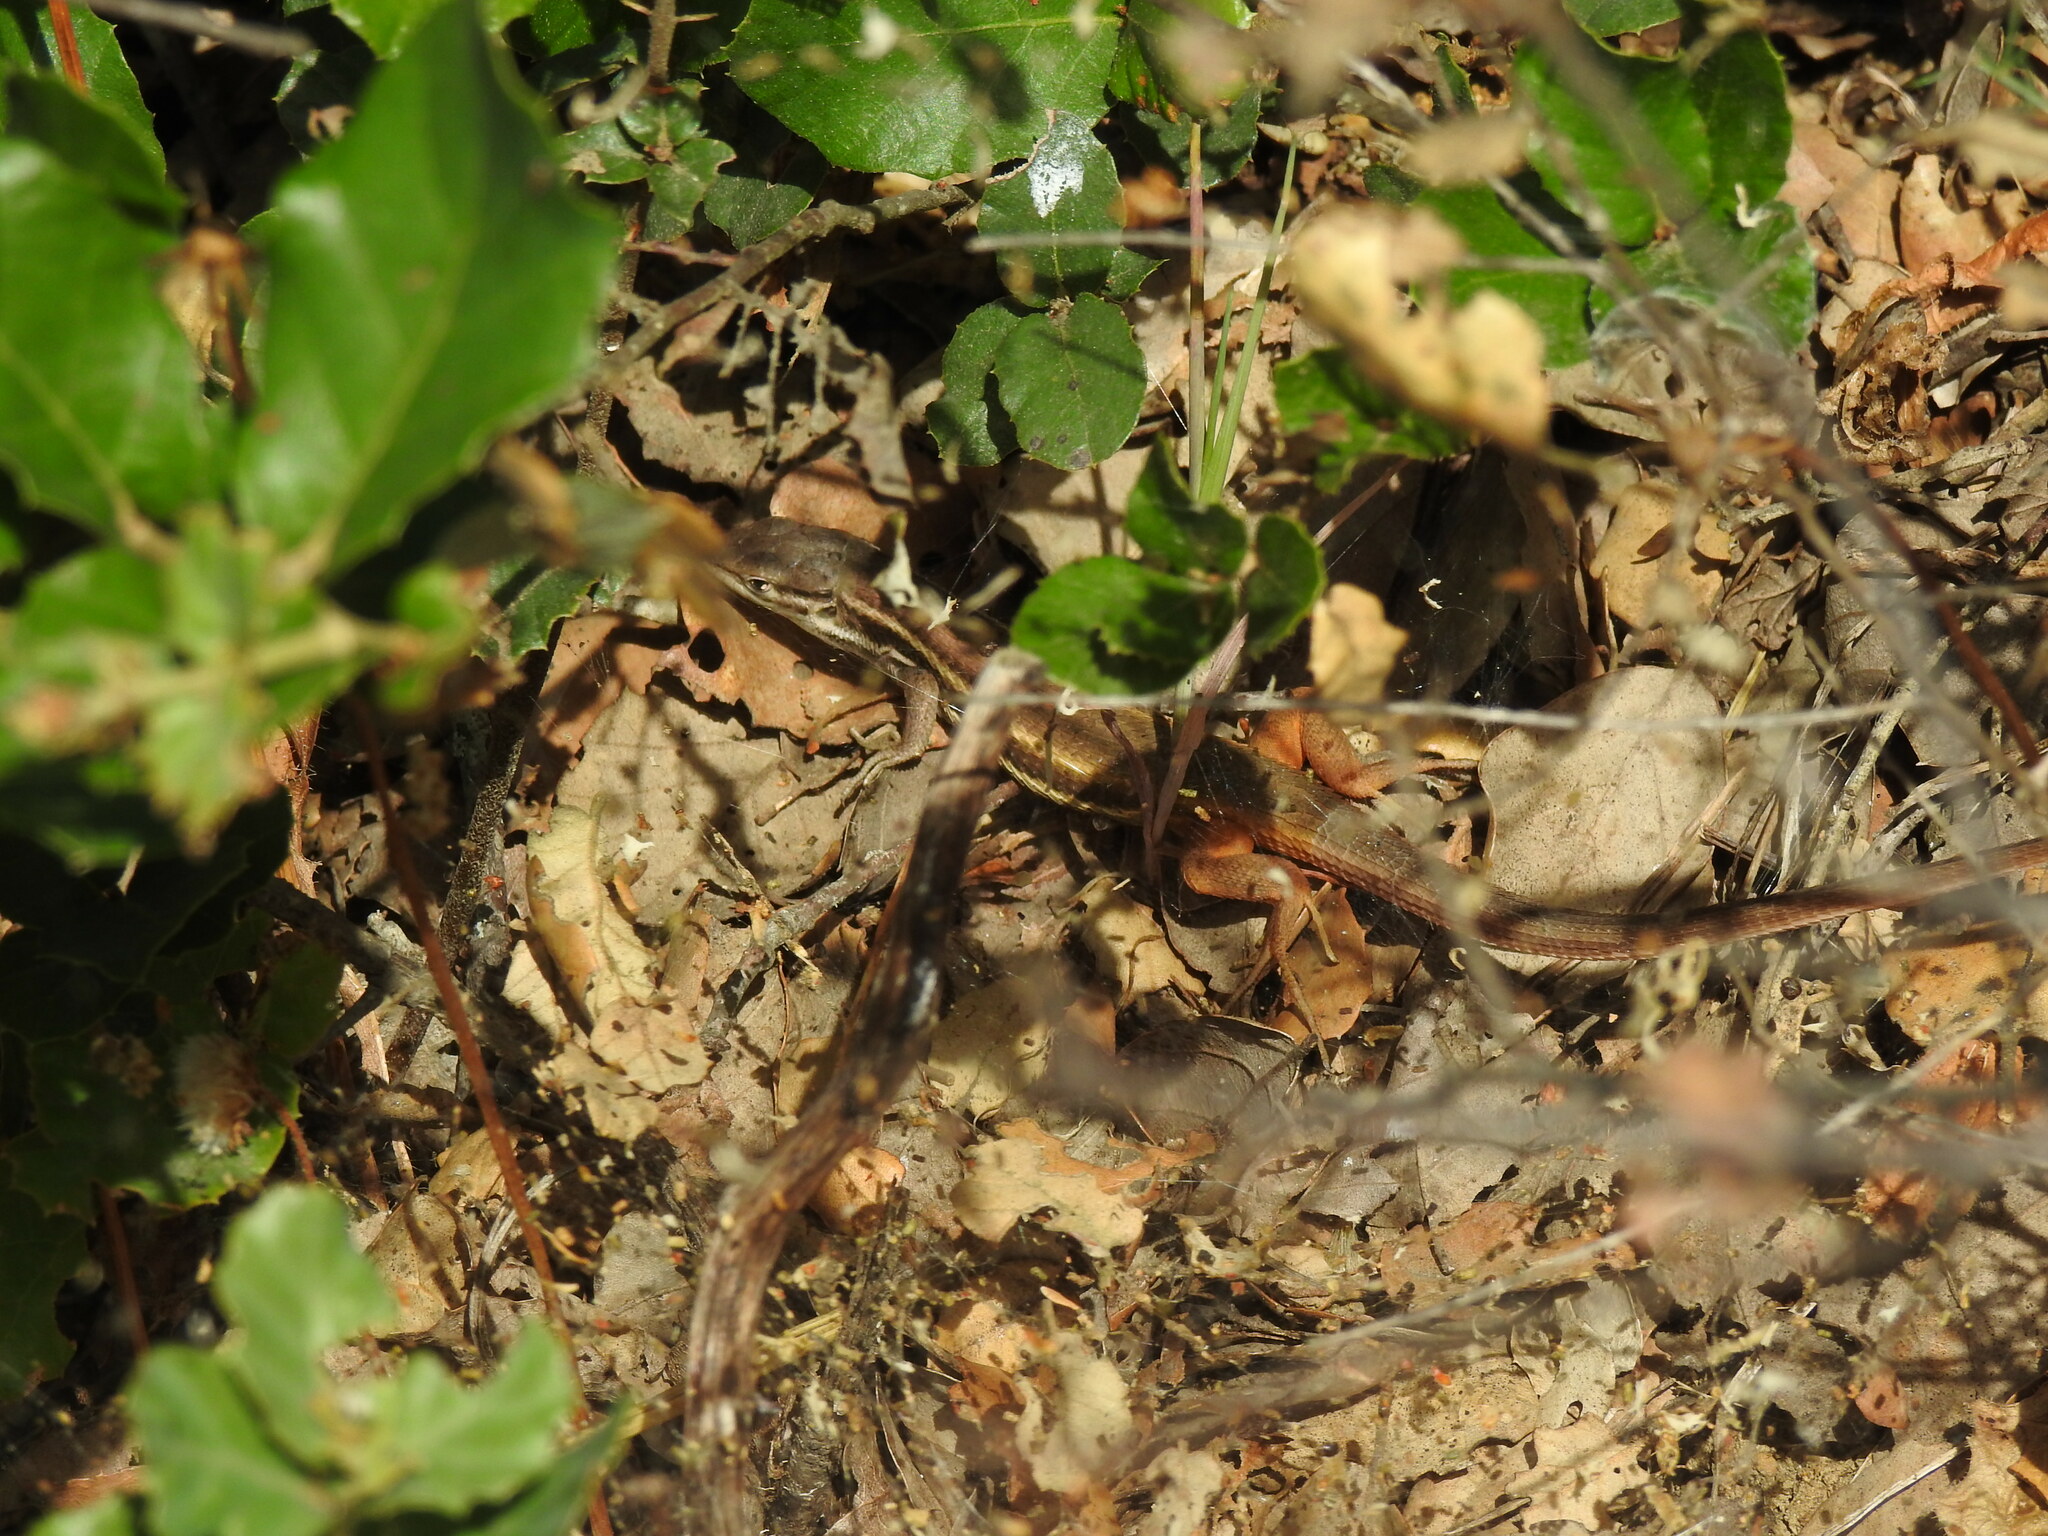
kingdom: Animalia
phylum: Chordata
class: Squamata
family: Lacertidae
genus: Psammodromus
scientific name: Psammodromus algirus
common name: Algerian psammodromus
